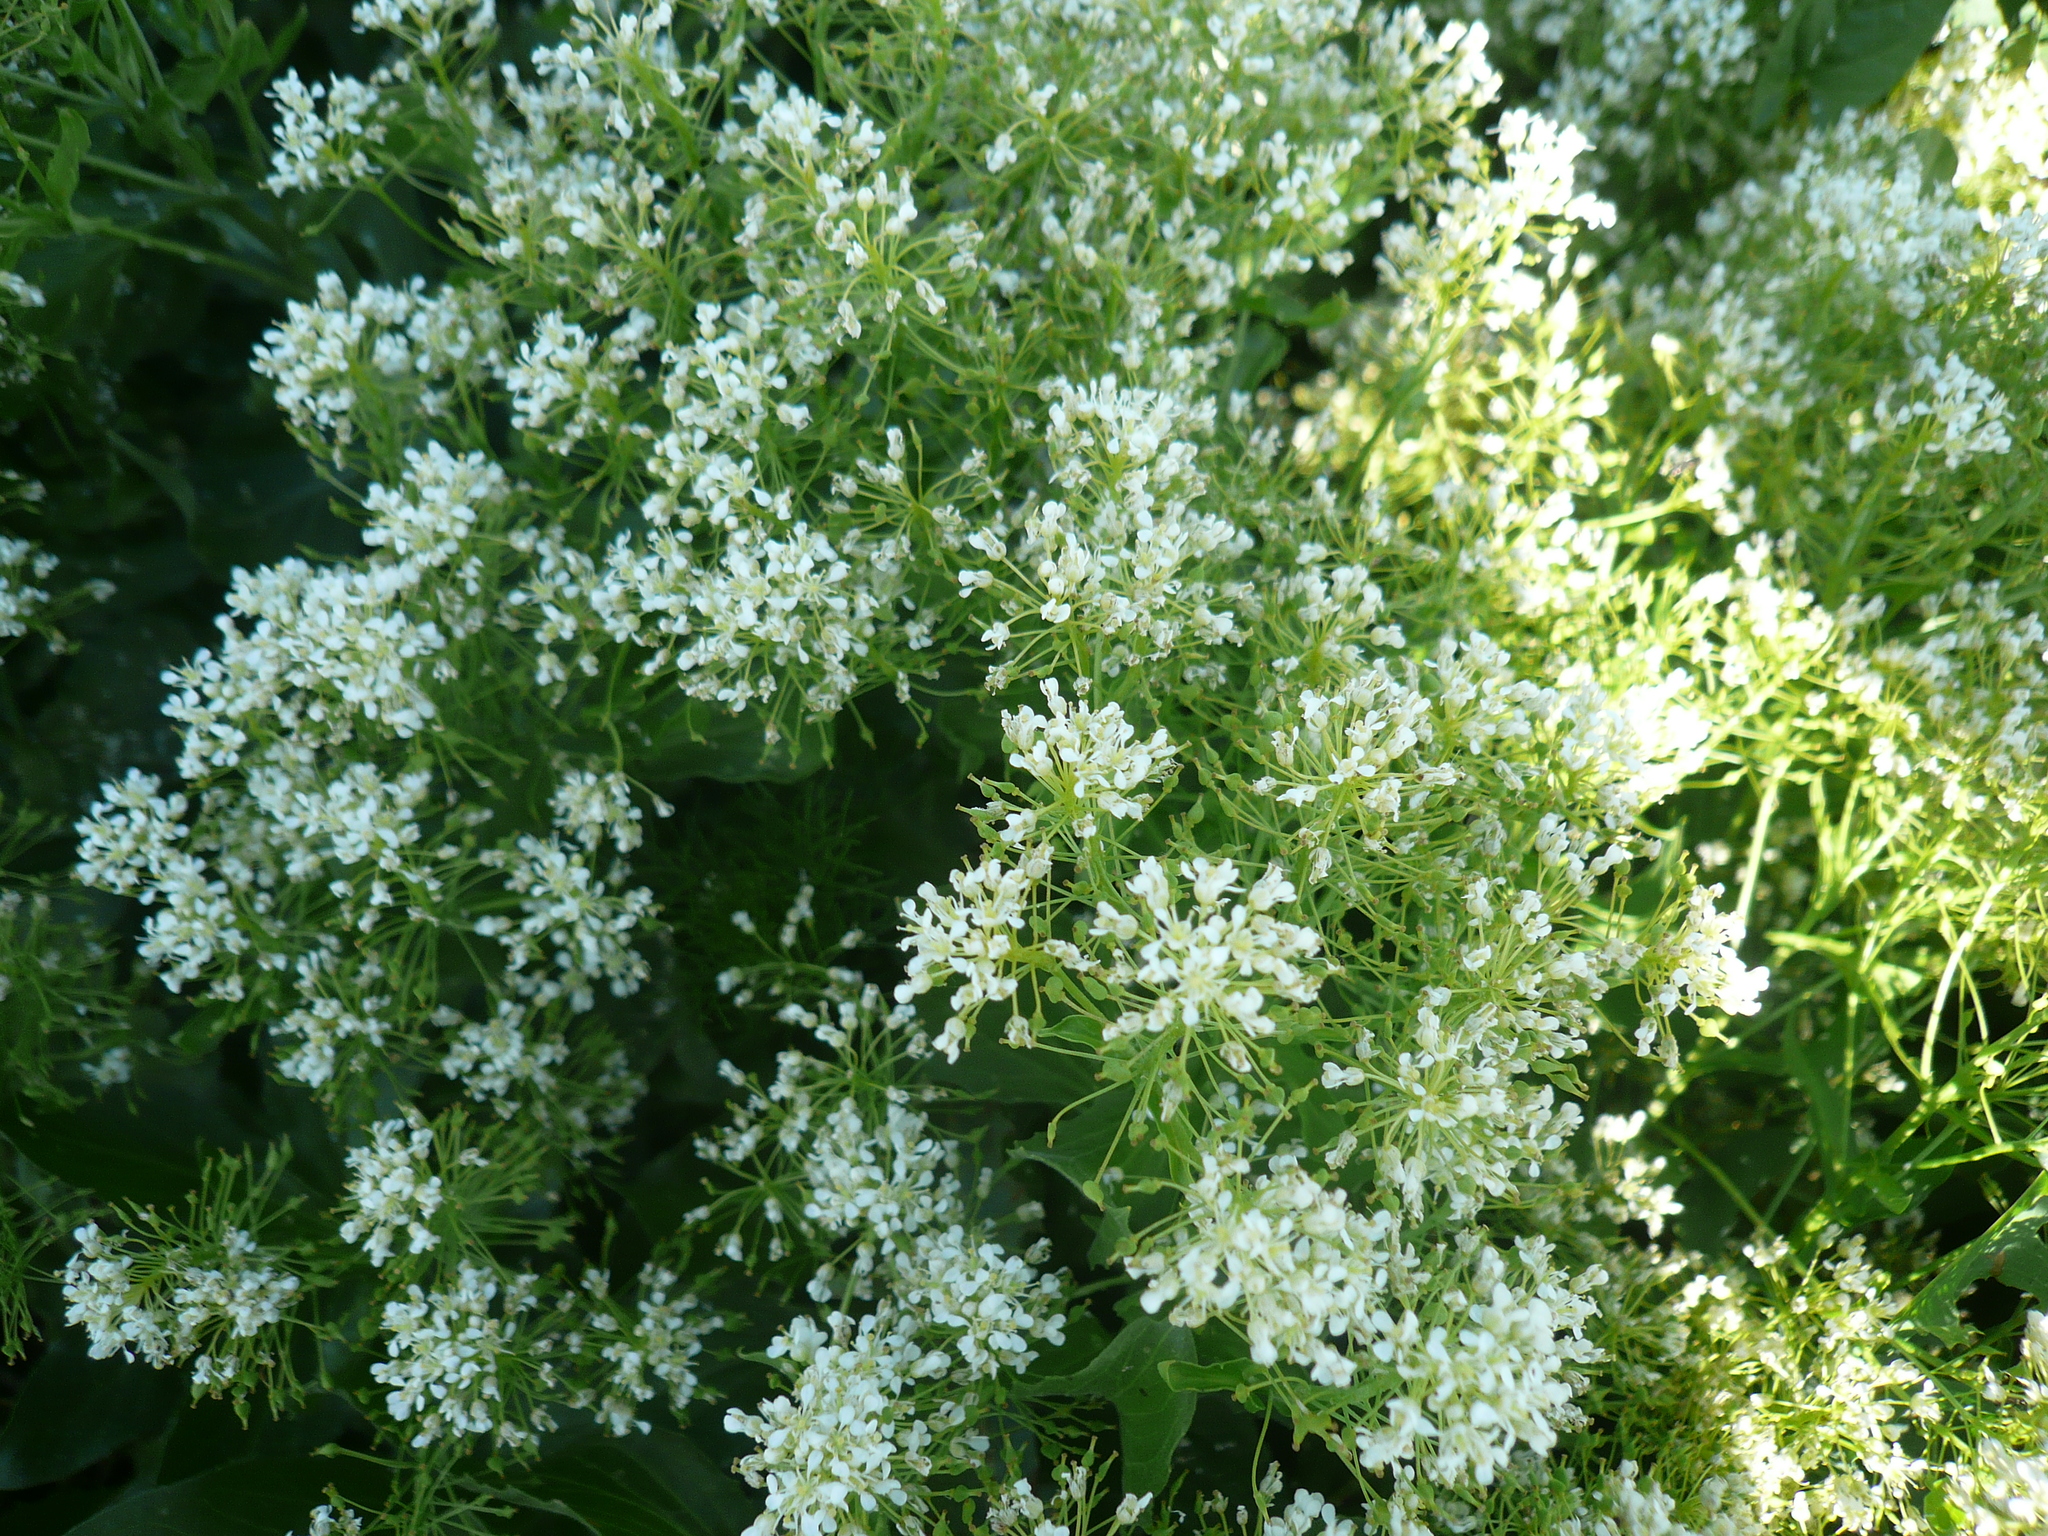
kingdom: Plantae
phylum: Tracheophyta
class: Magnoliopsida
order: Brassicales
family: Brassicaceae
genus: Lepidium
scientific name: Lepidium draba
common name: Hoary cress
